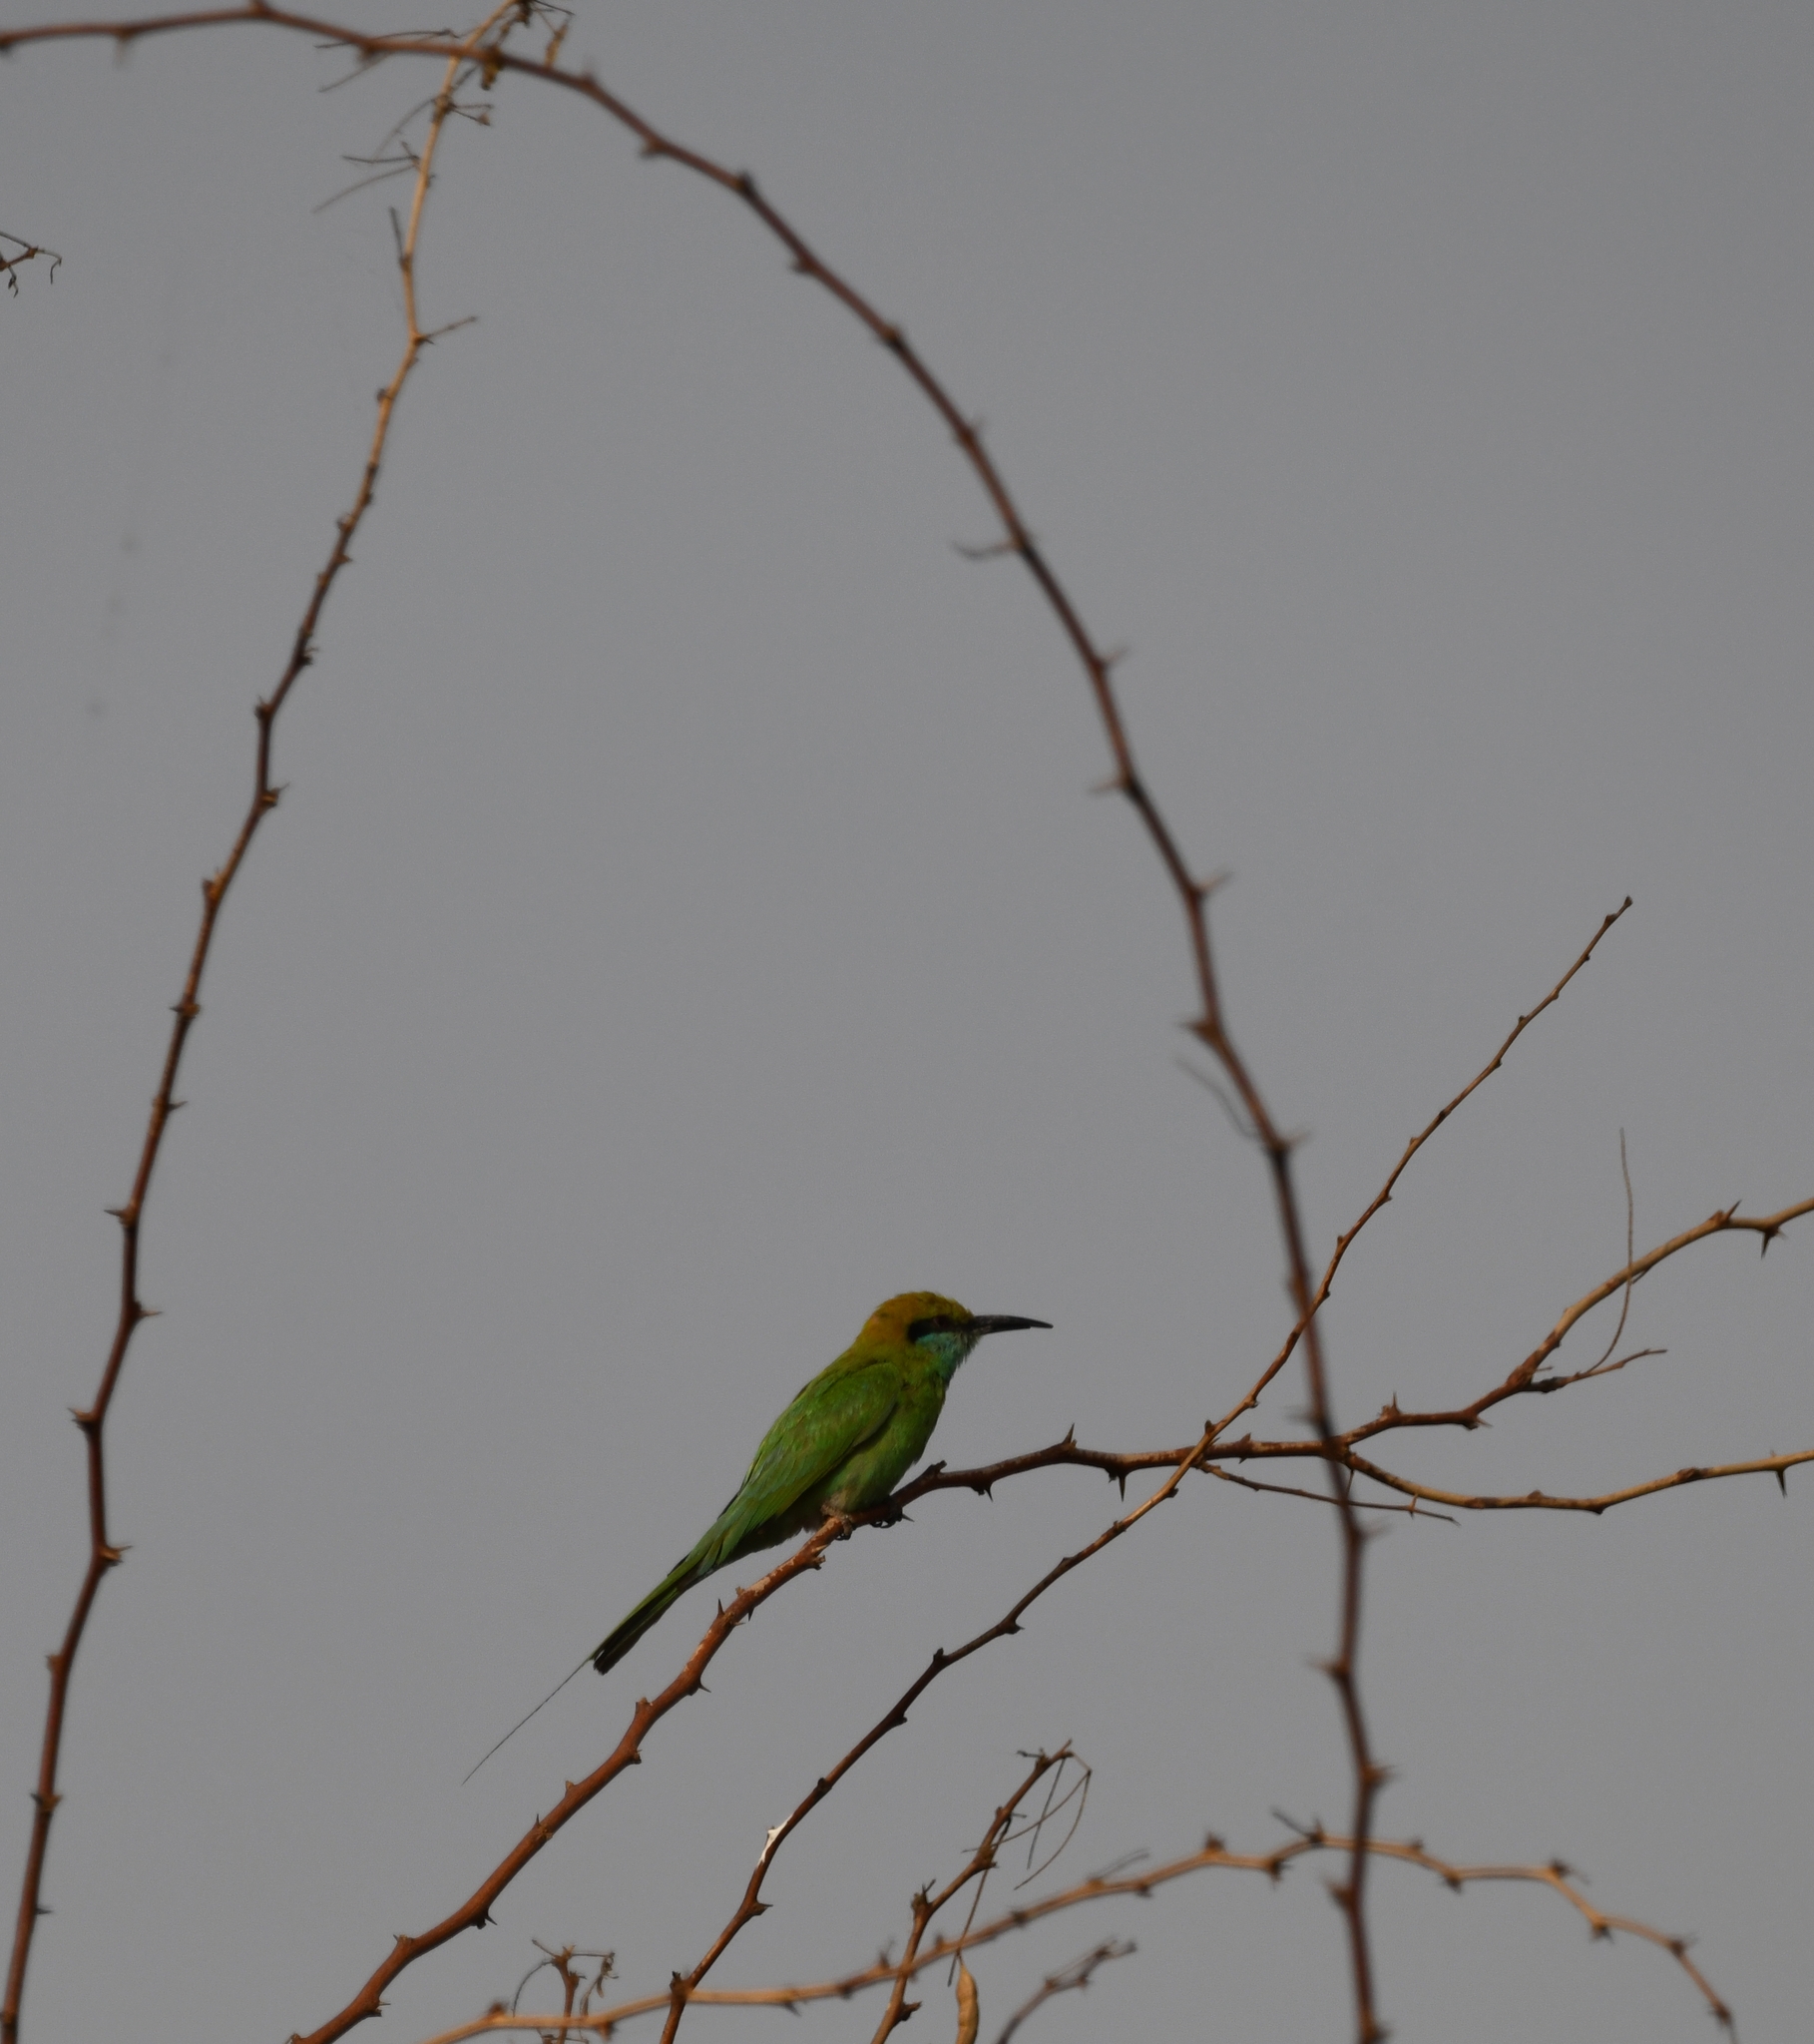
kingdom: Animalia
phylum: Chordata
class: Aves
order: Coraciiformes
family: Meropidae
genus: Merops
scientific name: Merops orientalis
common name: Green bee-eater
